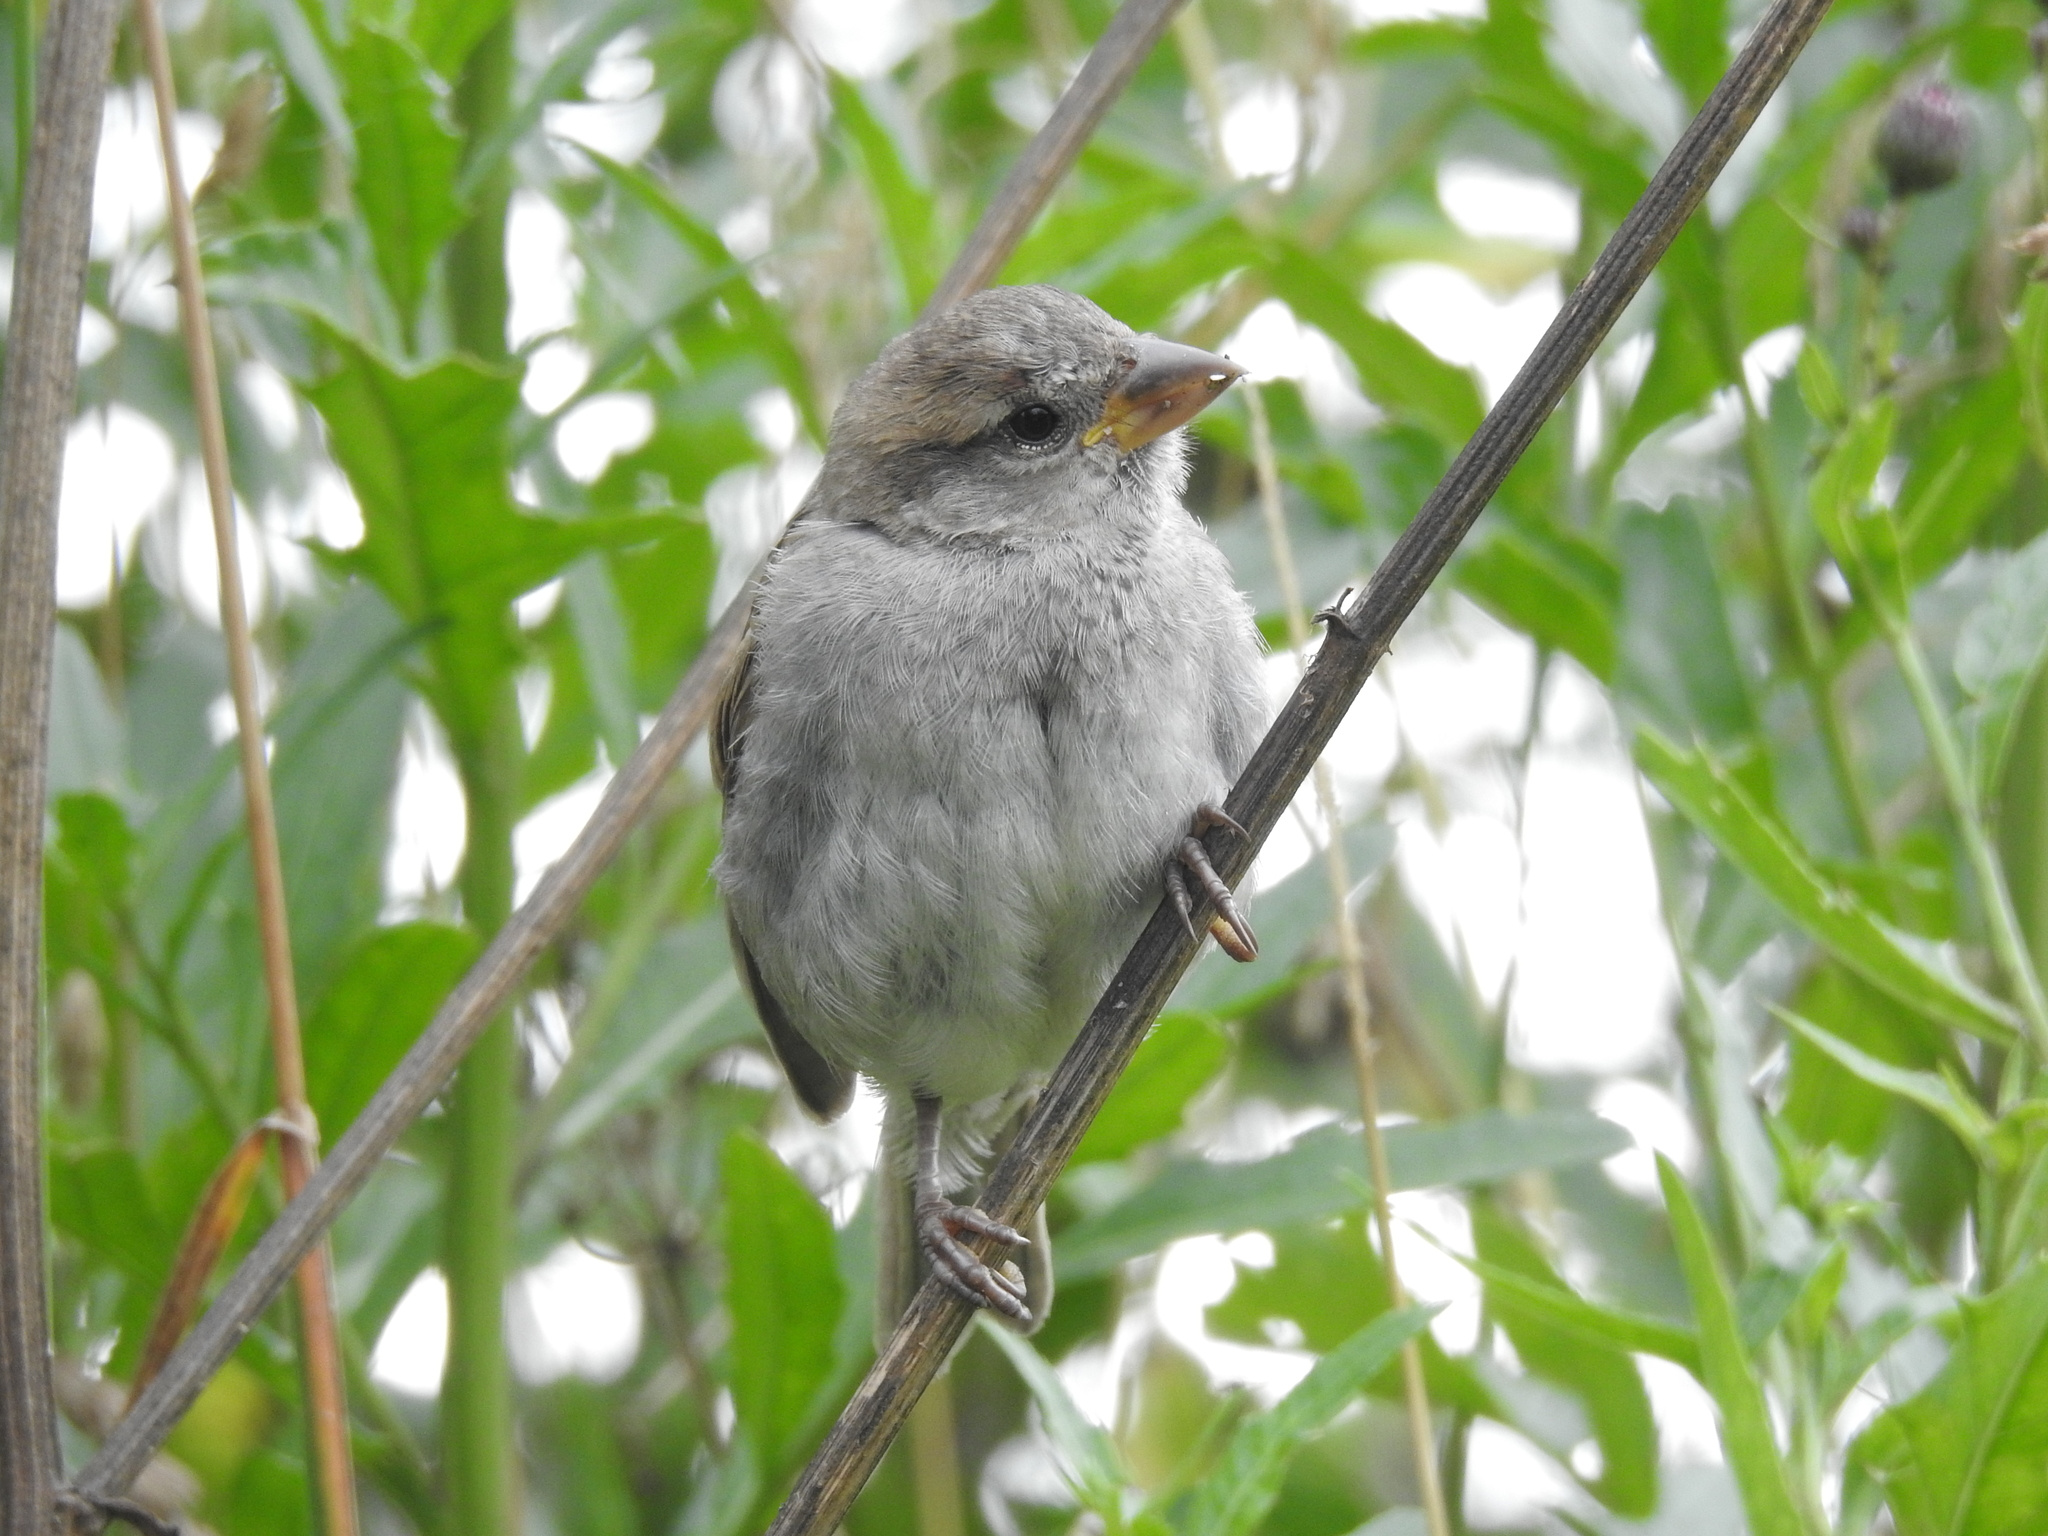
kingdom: Animalia
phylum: Chordata
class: Aves
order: Passeriformes
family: Passeridae
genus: Passer
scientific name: Passer domesticus
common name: House sparrow
